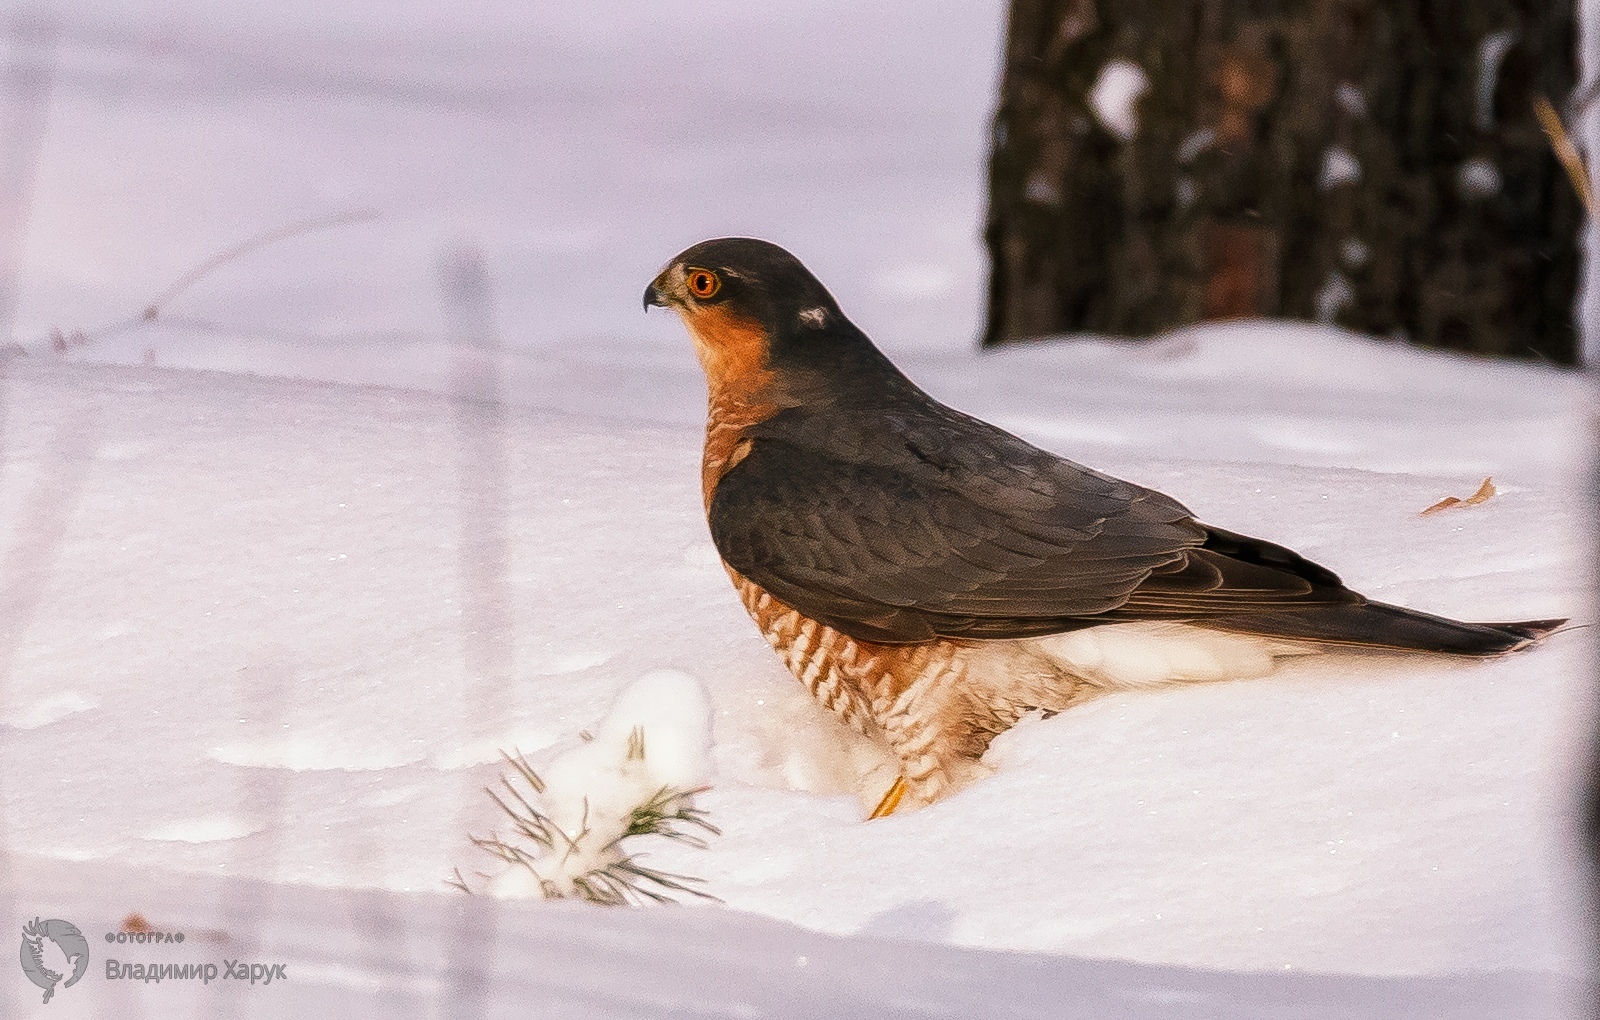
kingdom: Animalia
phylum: Chordata
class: Aves
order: Accipitriformes
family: Accipitridae
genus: Accipiter
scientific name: Accipiter nisus
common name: Eurasian sparrowhawk
